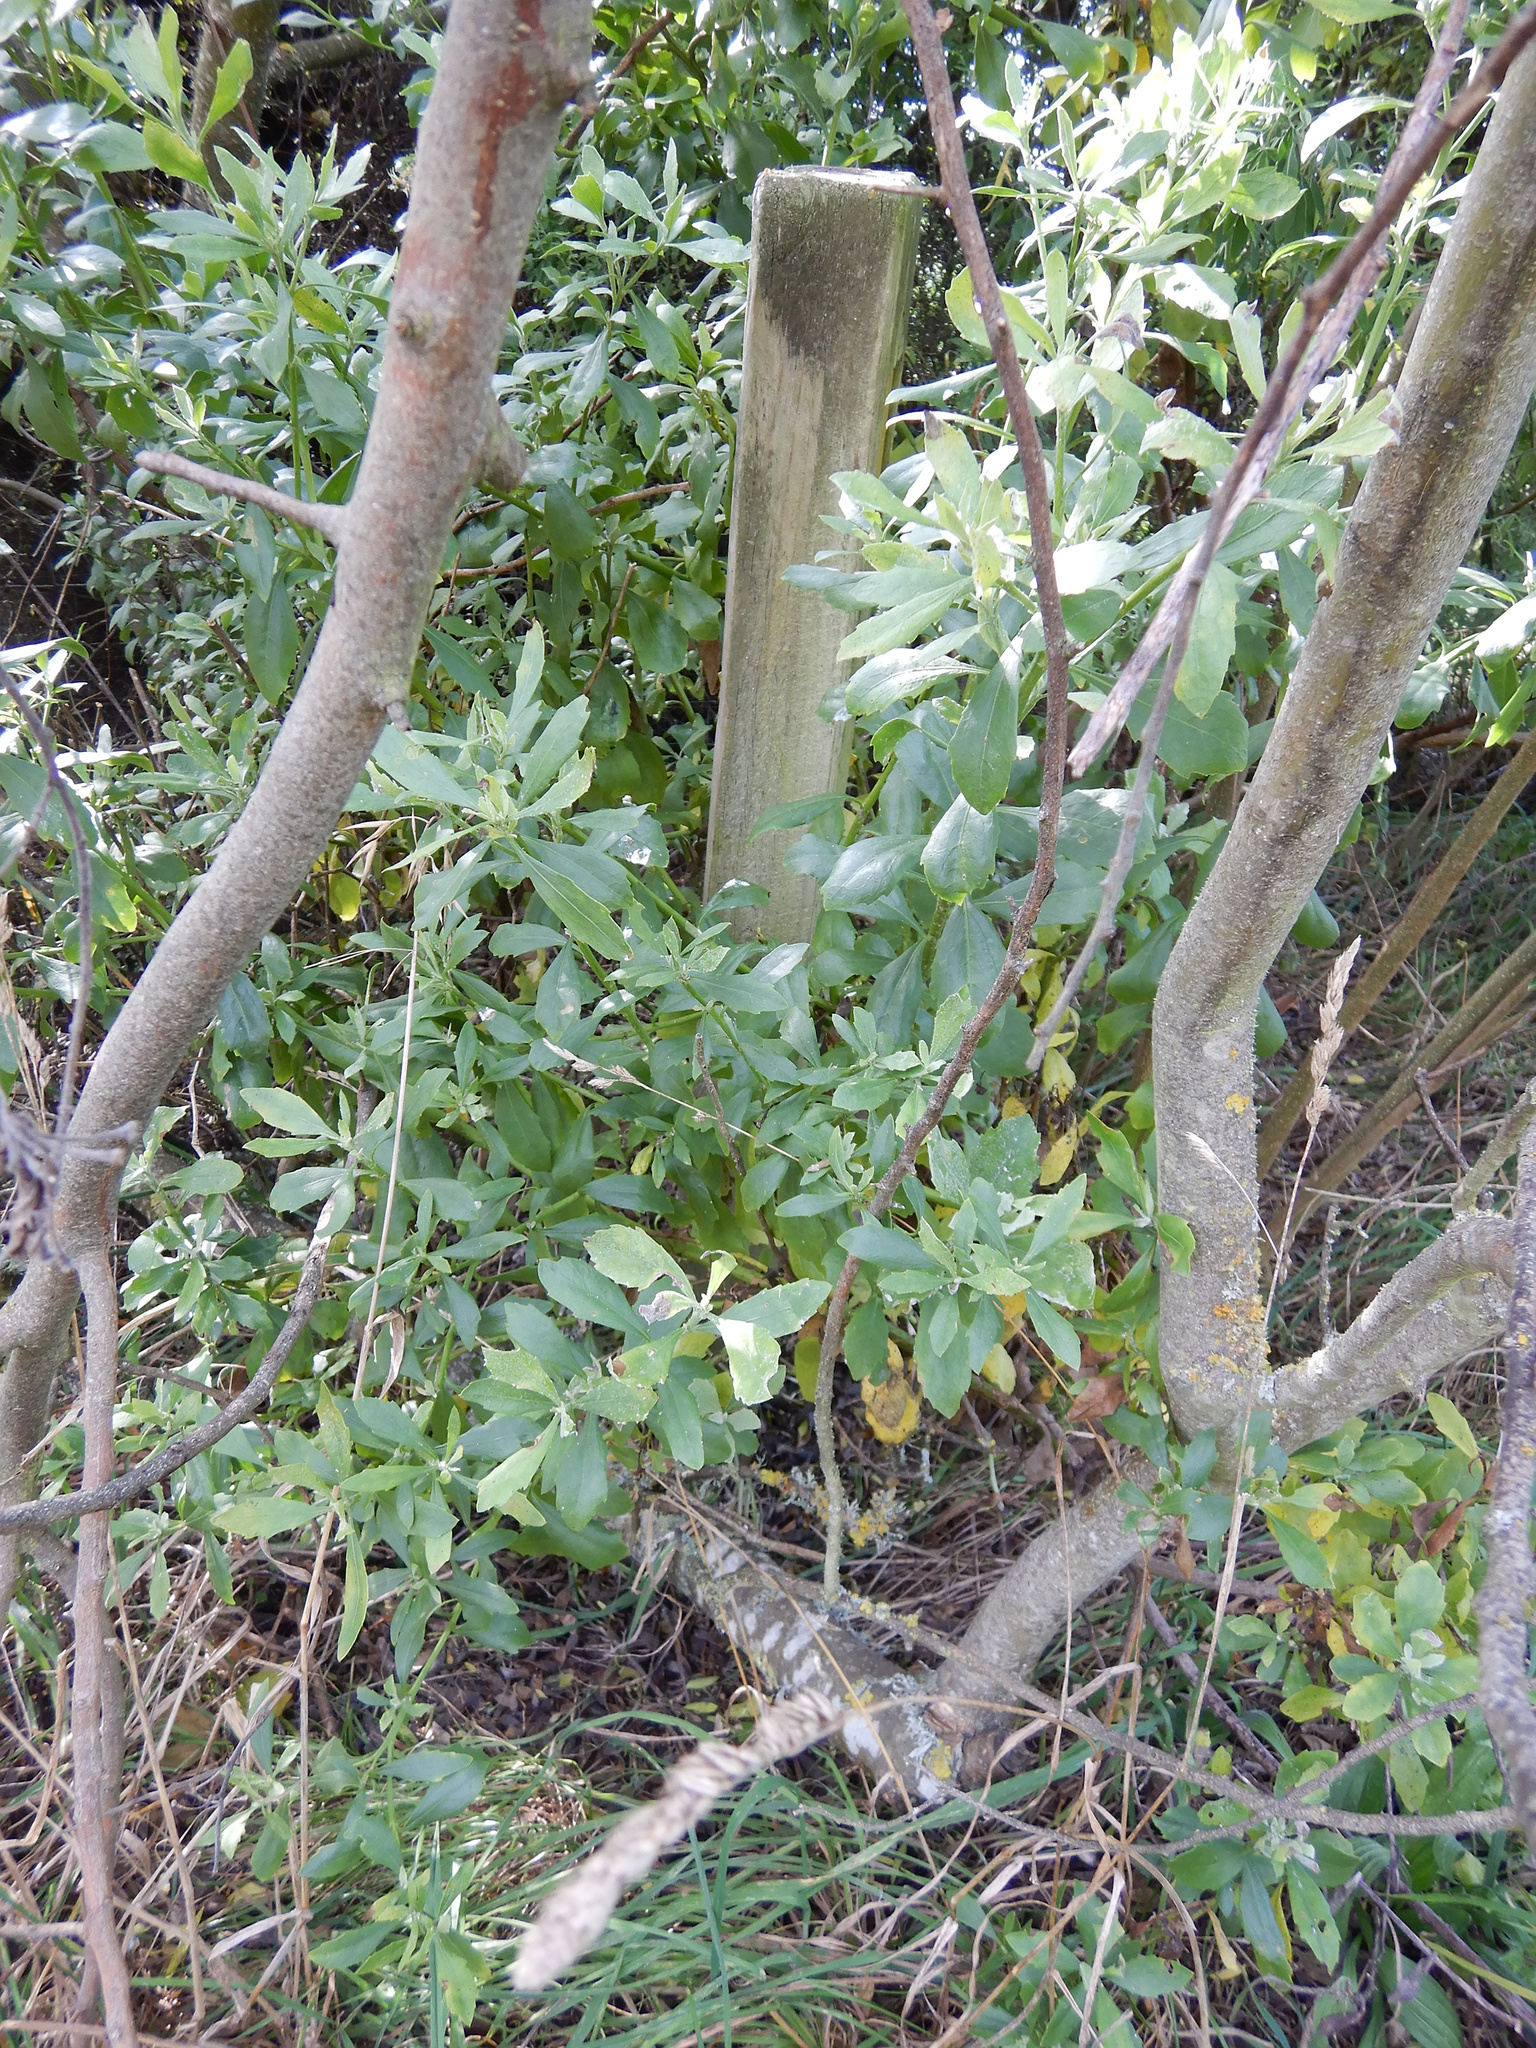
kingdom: Plantae
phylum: Tracheophyta
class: Magnoliopsida
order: Asterales
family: Asteraceae
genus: Osteospermum
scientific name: Osteospermum moniliferum
